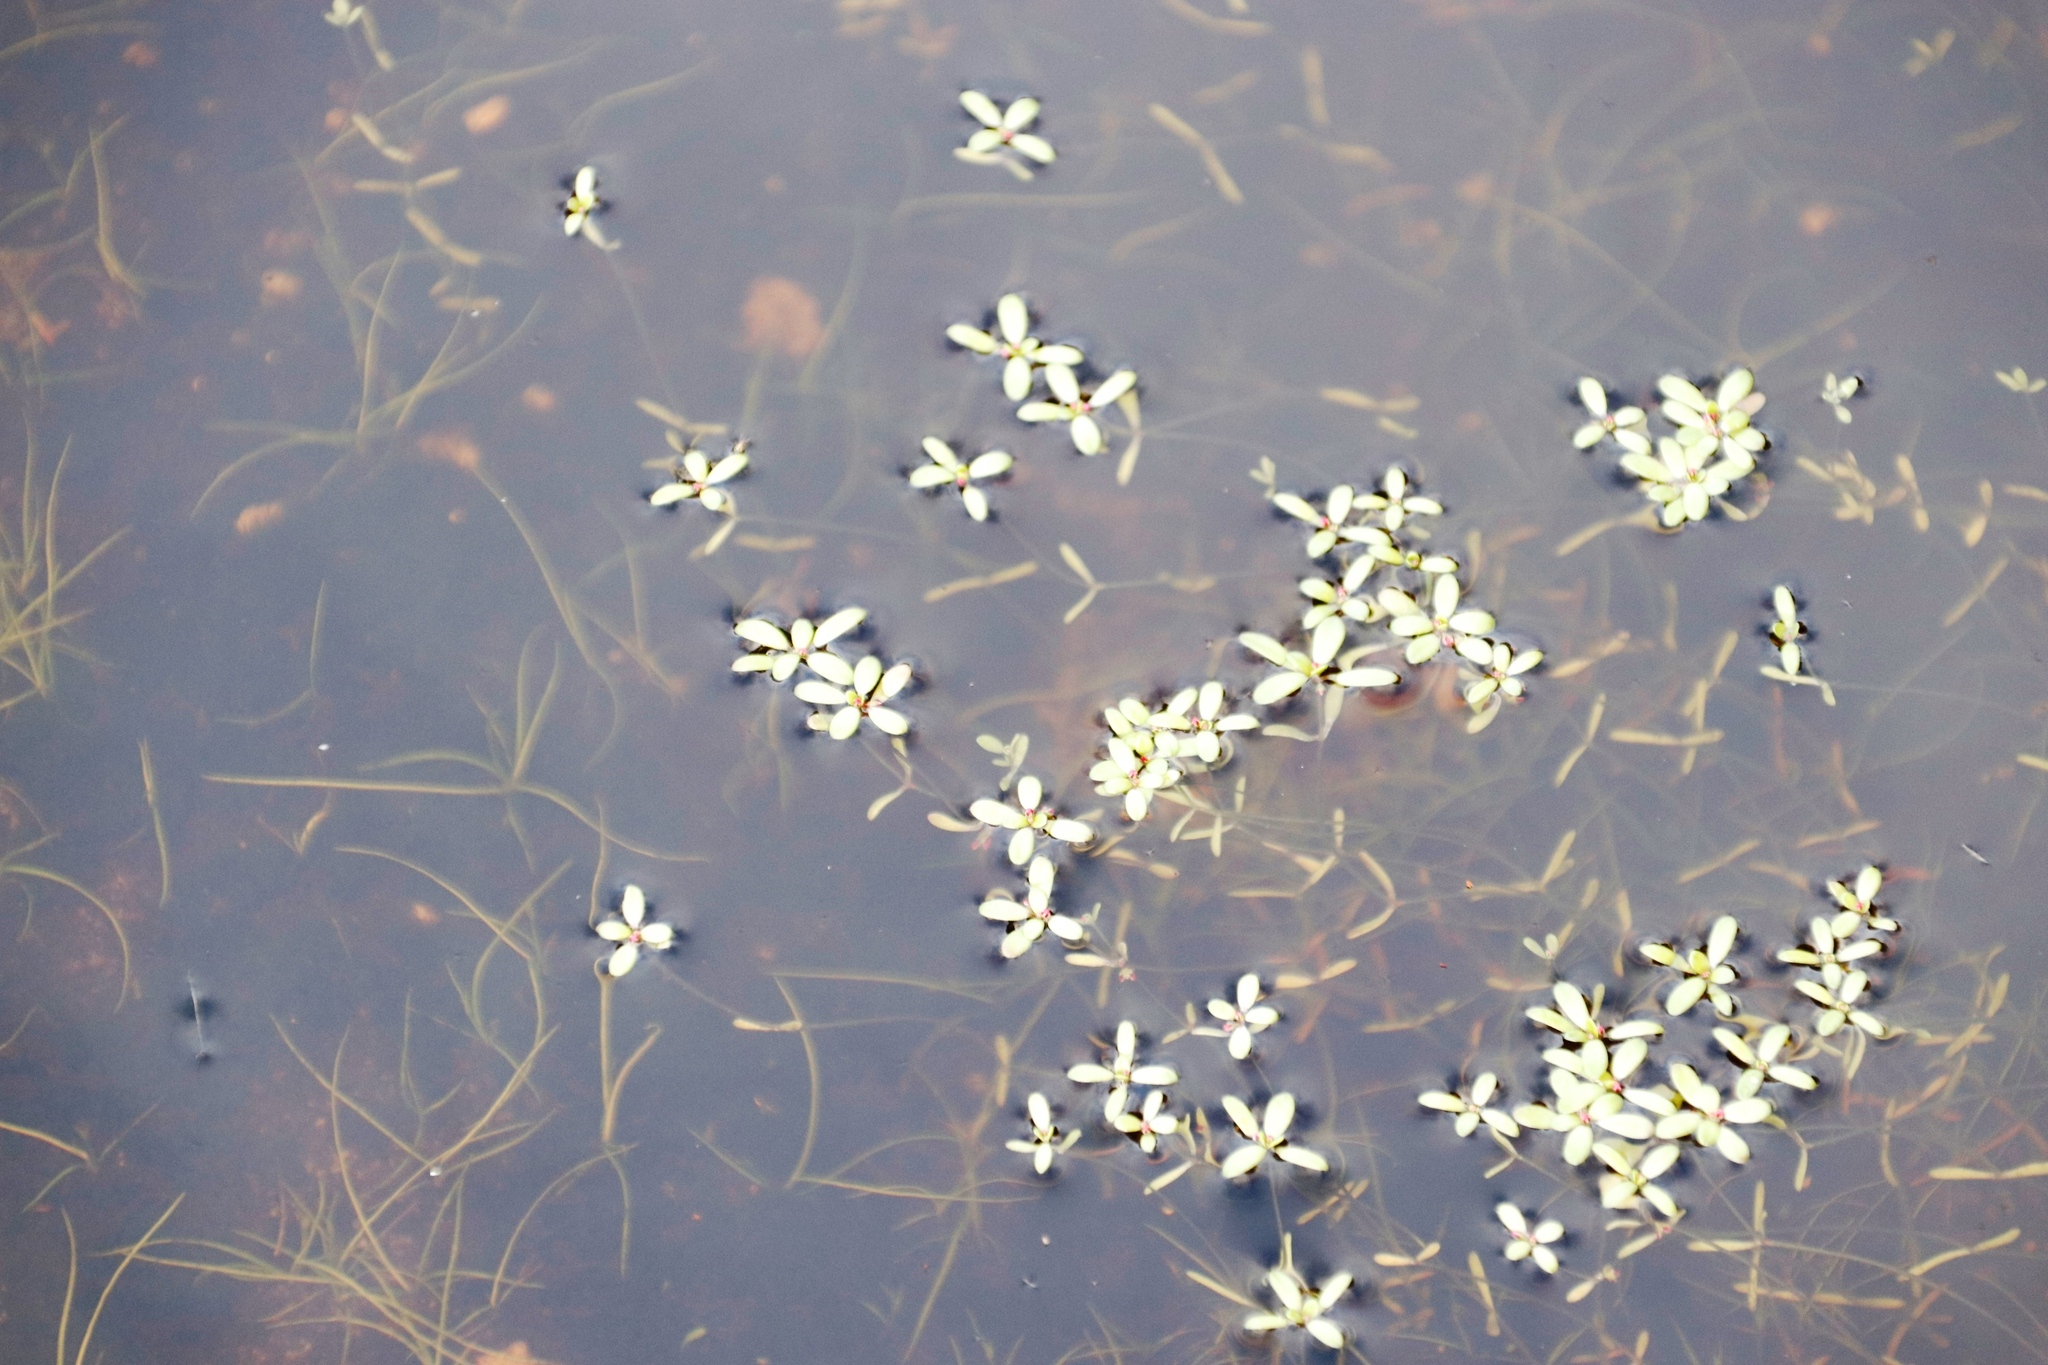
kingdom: Plantae
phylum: Tracheophyta
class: Magnoliopsida
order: Saxifragales
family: Crassulaceae
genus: Crassula
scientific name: Crassula natans
